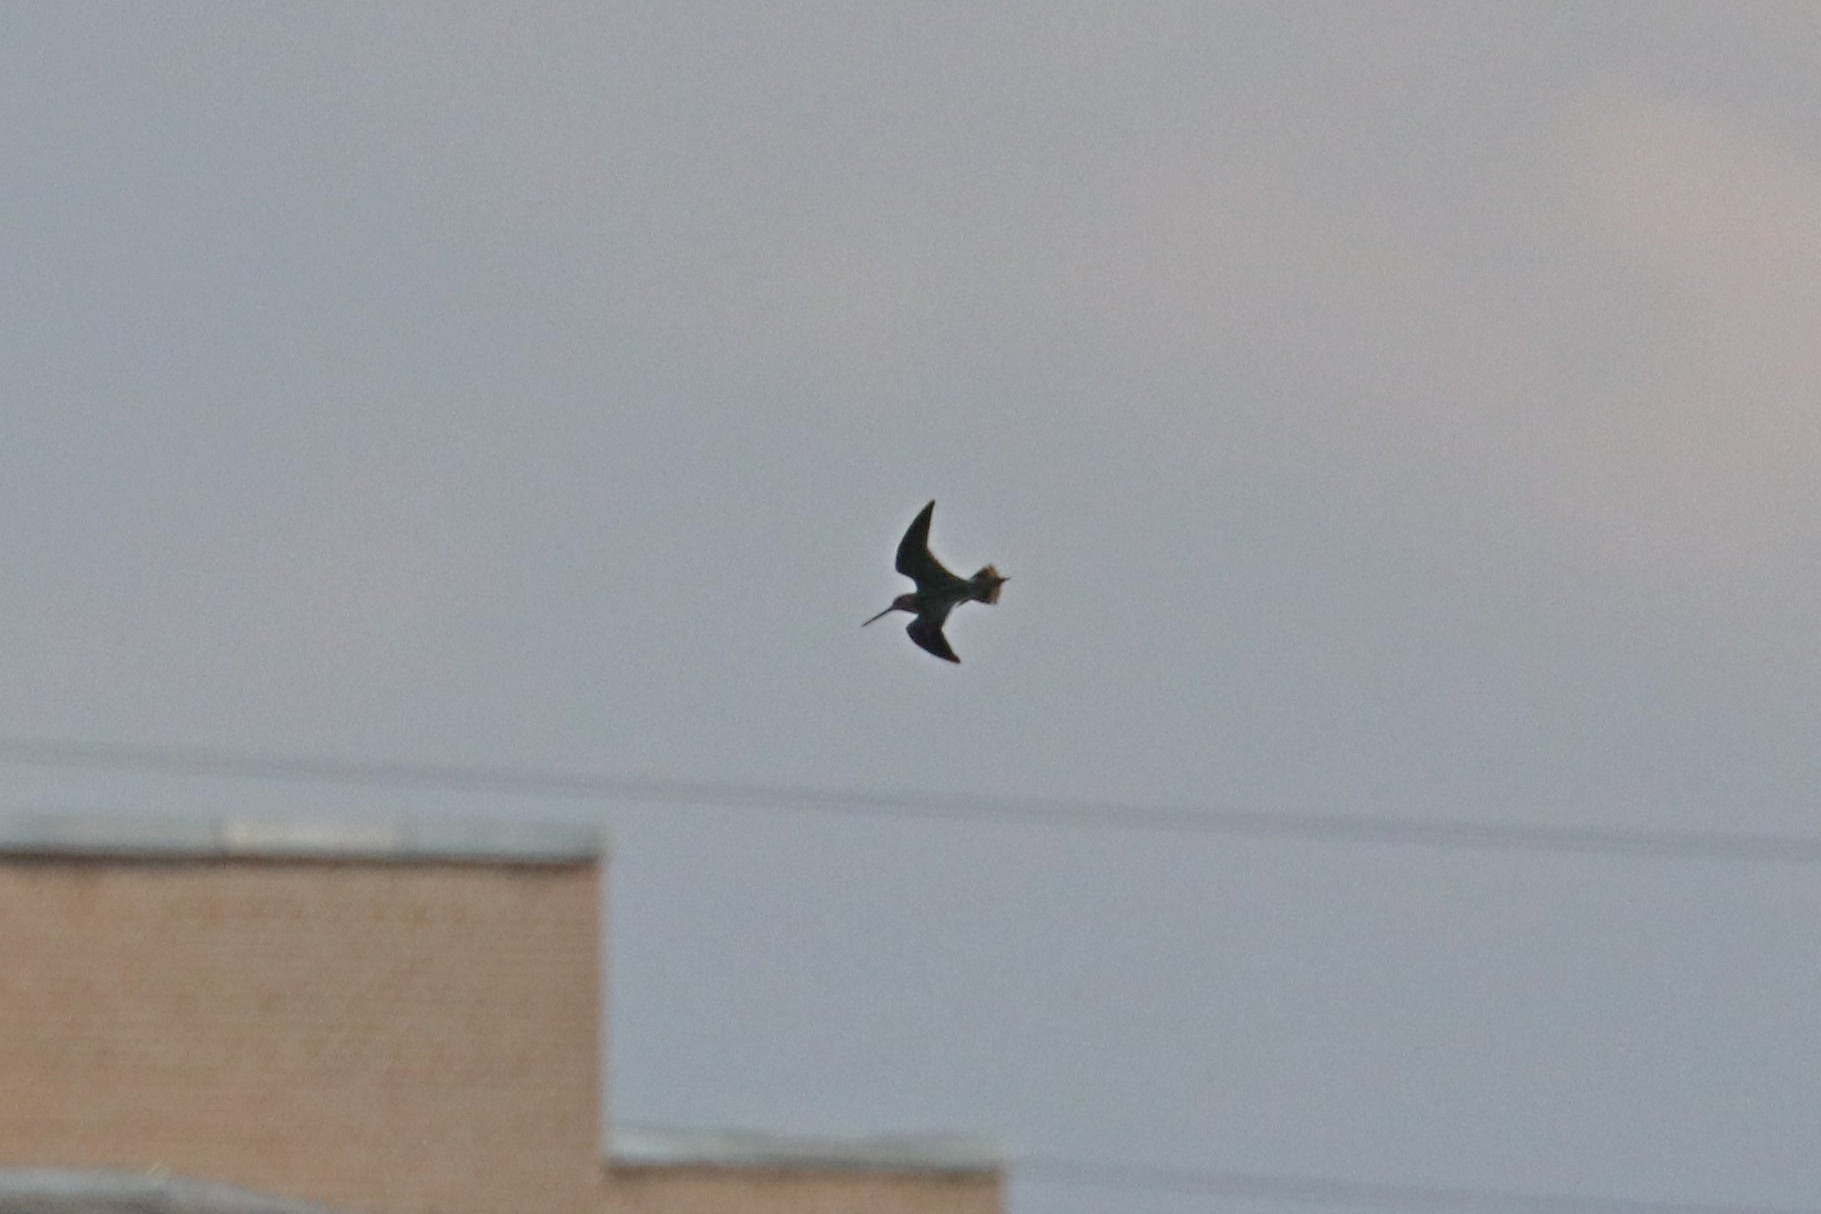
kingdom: Animalia
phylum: Chordata
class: Aves
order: Charadriiformes
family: Scolopacidae
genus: Gallinago
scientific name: Gallinago gallinago
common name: Common snipe
